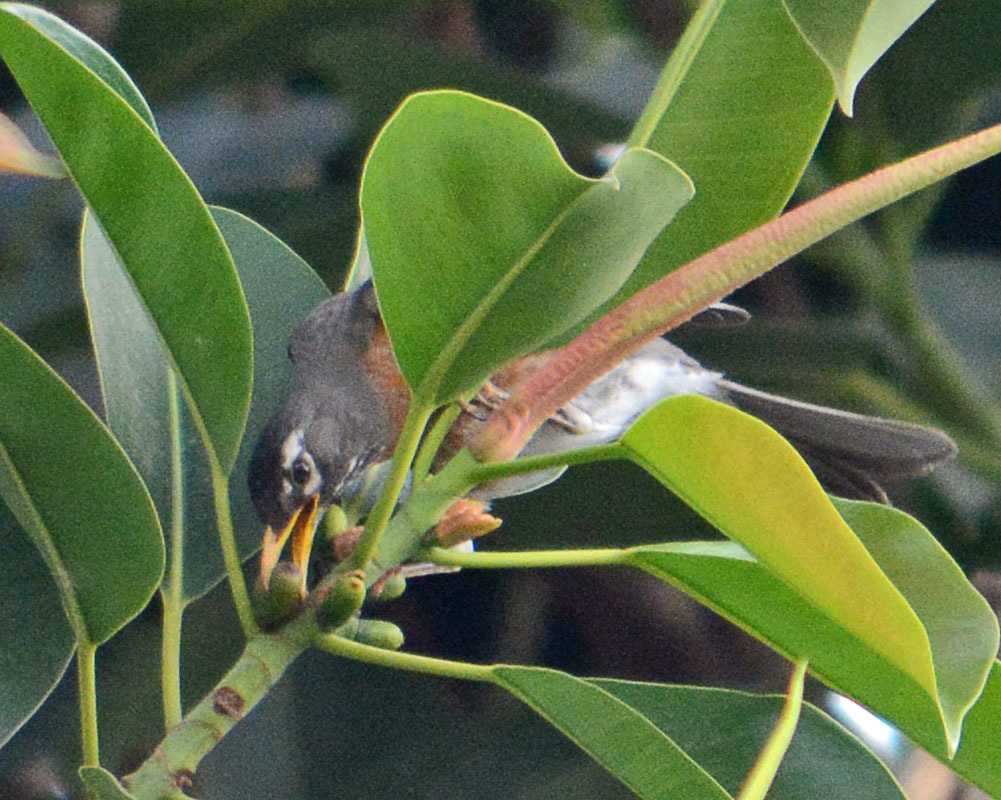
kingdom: Animalia
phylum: Chordata
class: Aves
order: Passeriformes
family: Turdidae
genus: Turdus
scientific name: Turdus migratorius
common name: American robin
